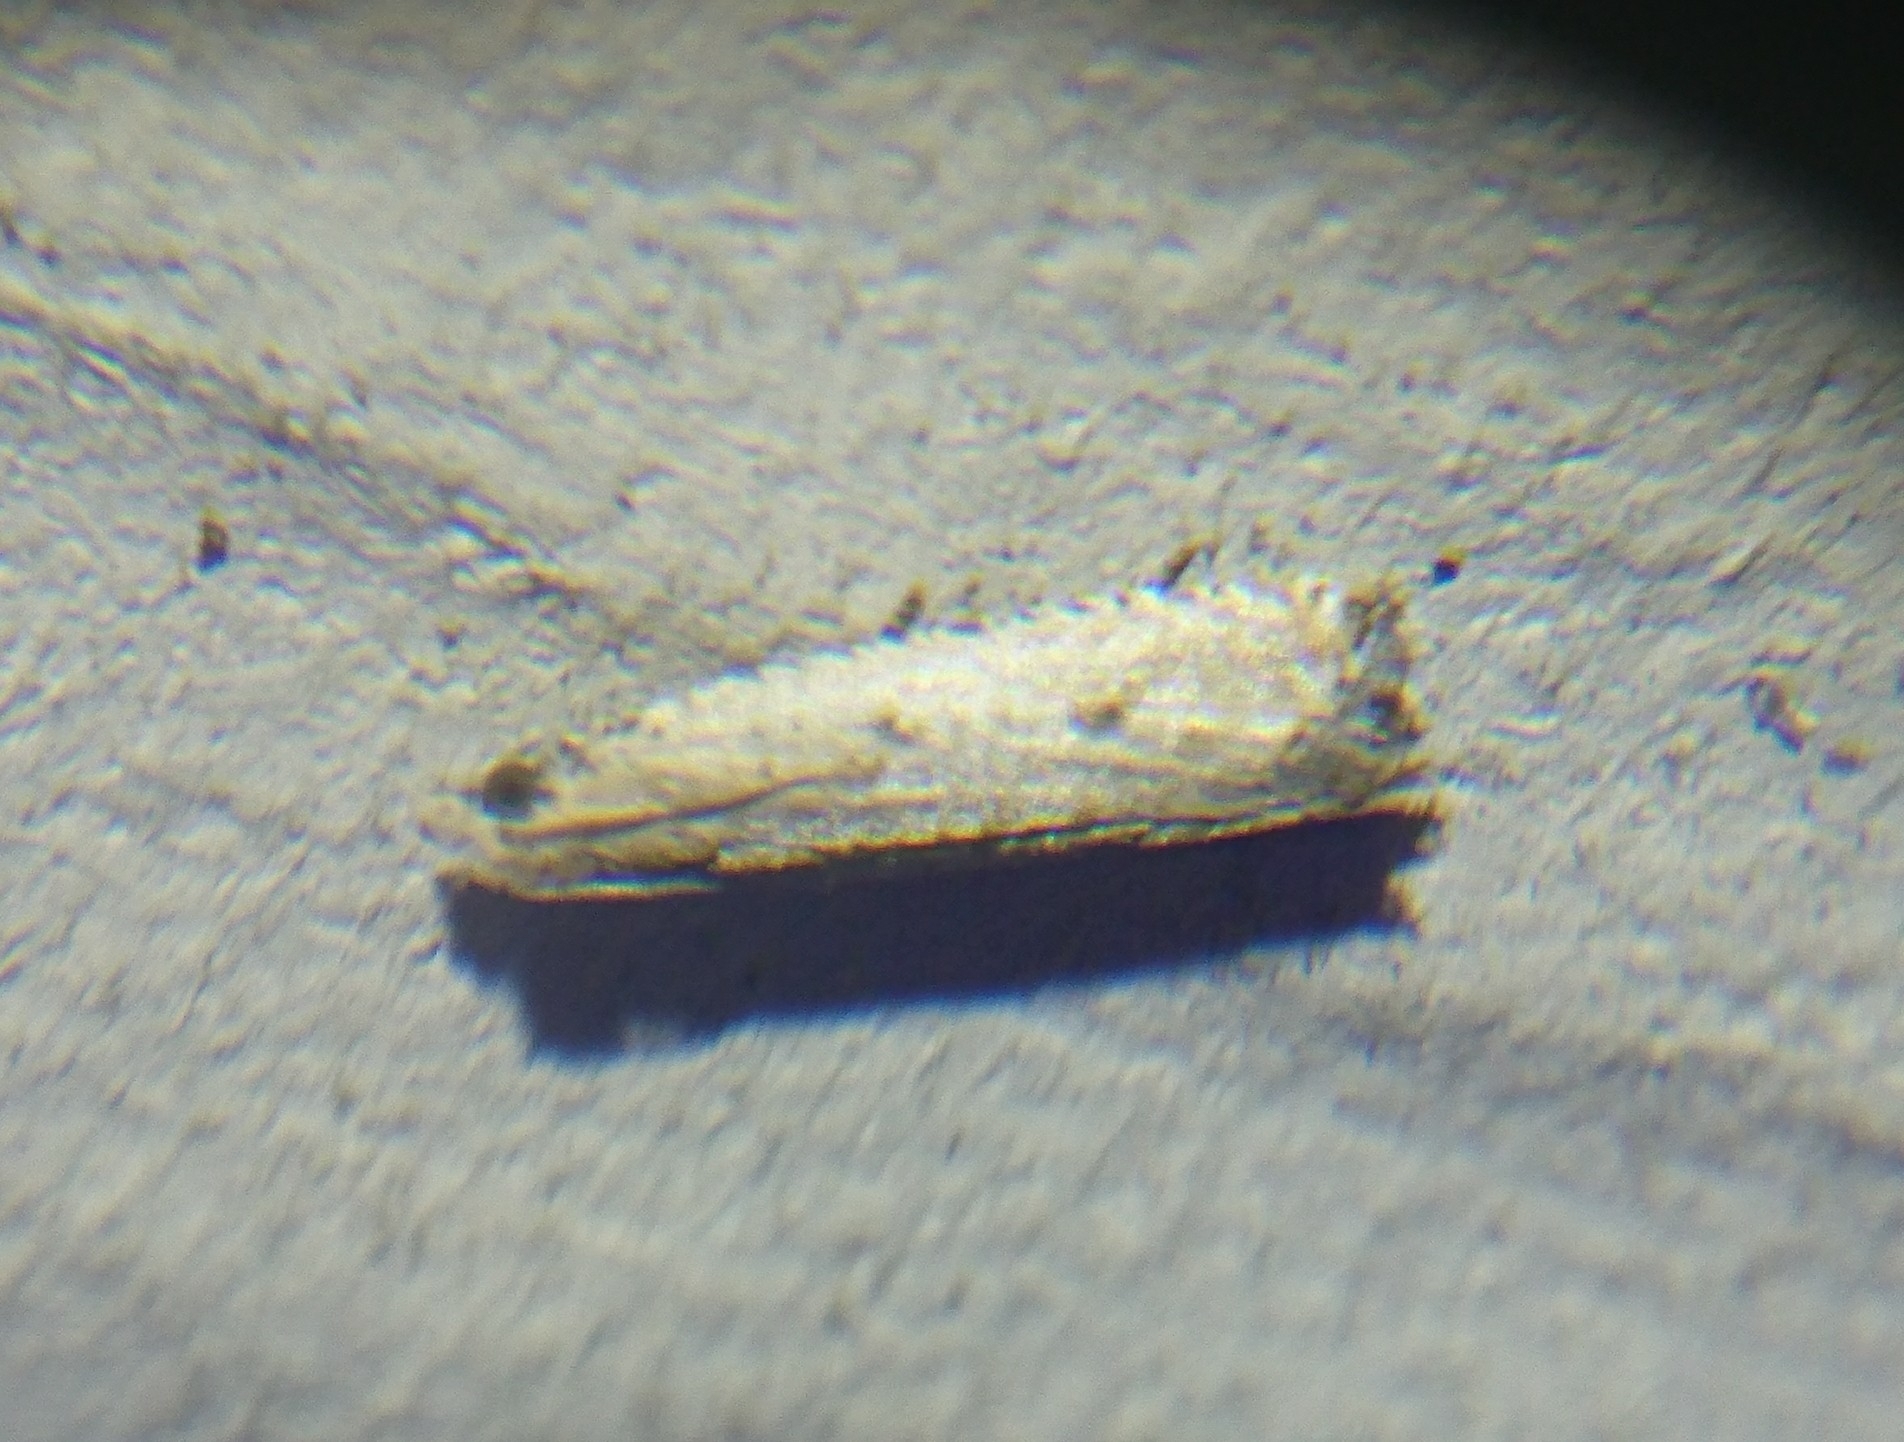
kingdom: Animalia
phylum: Arthropoda
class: Insecta
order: Lepidoptera
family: Tortricidae
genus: Bactra
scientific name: Bactra verutana
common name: Javelin moth
